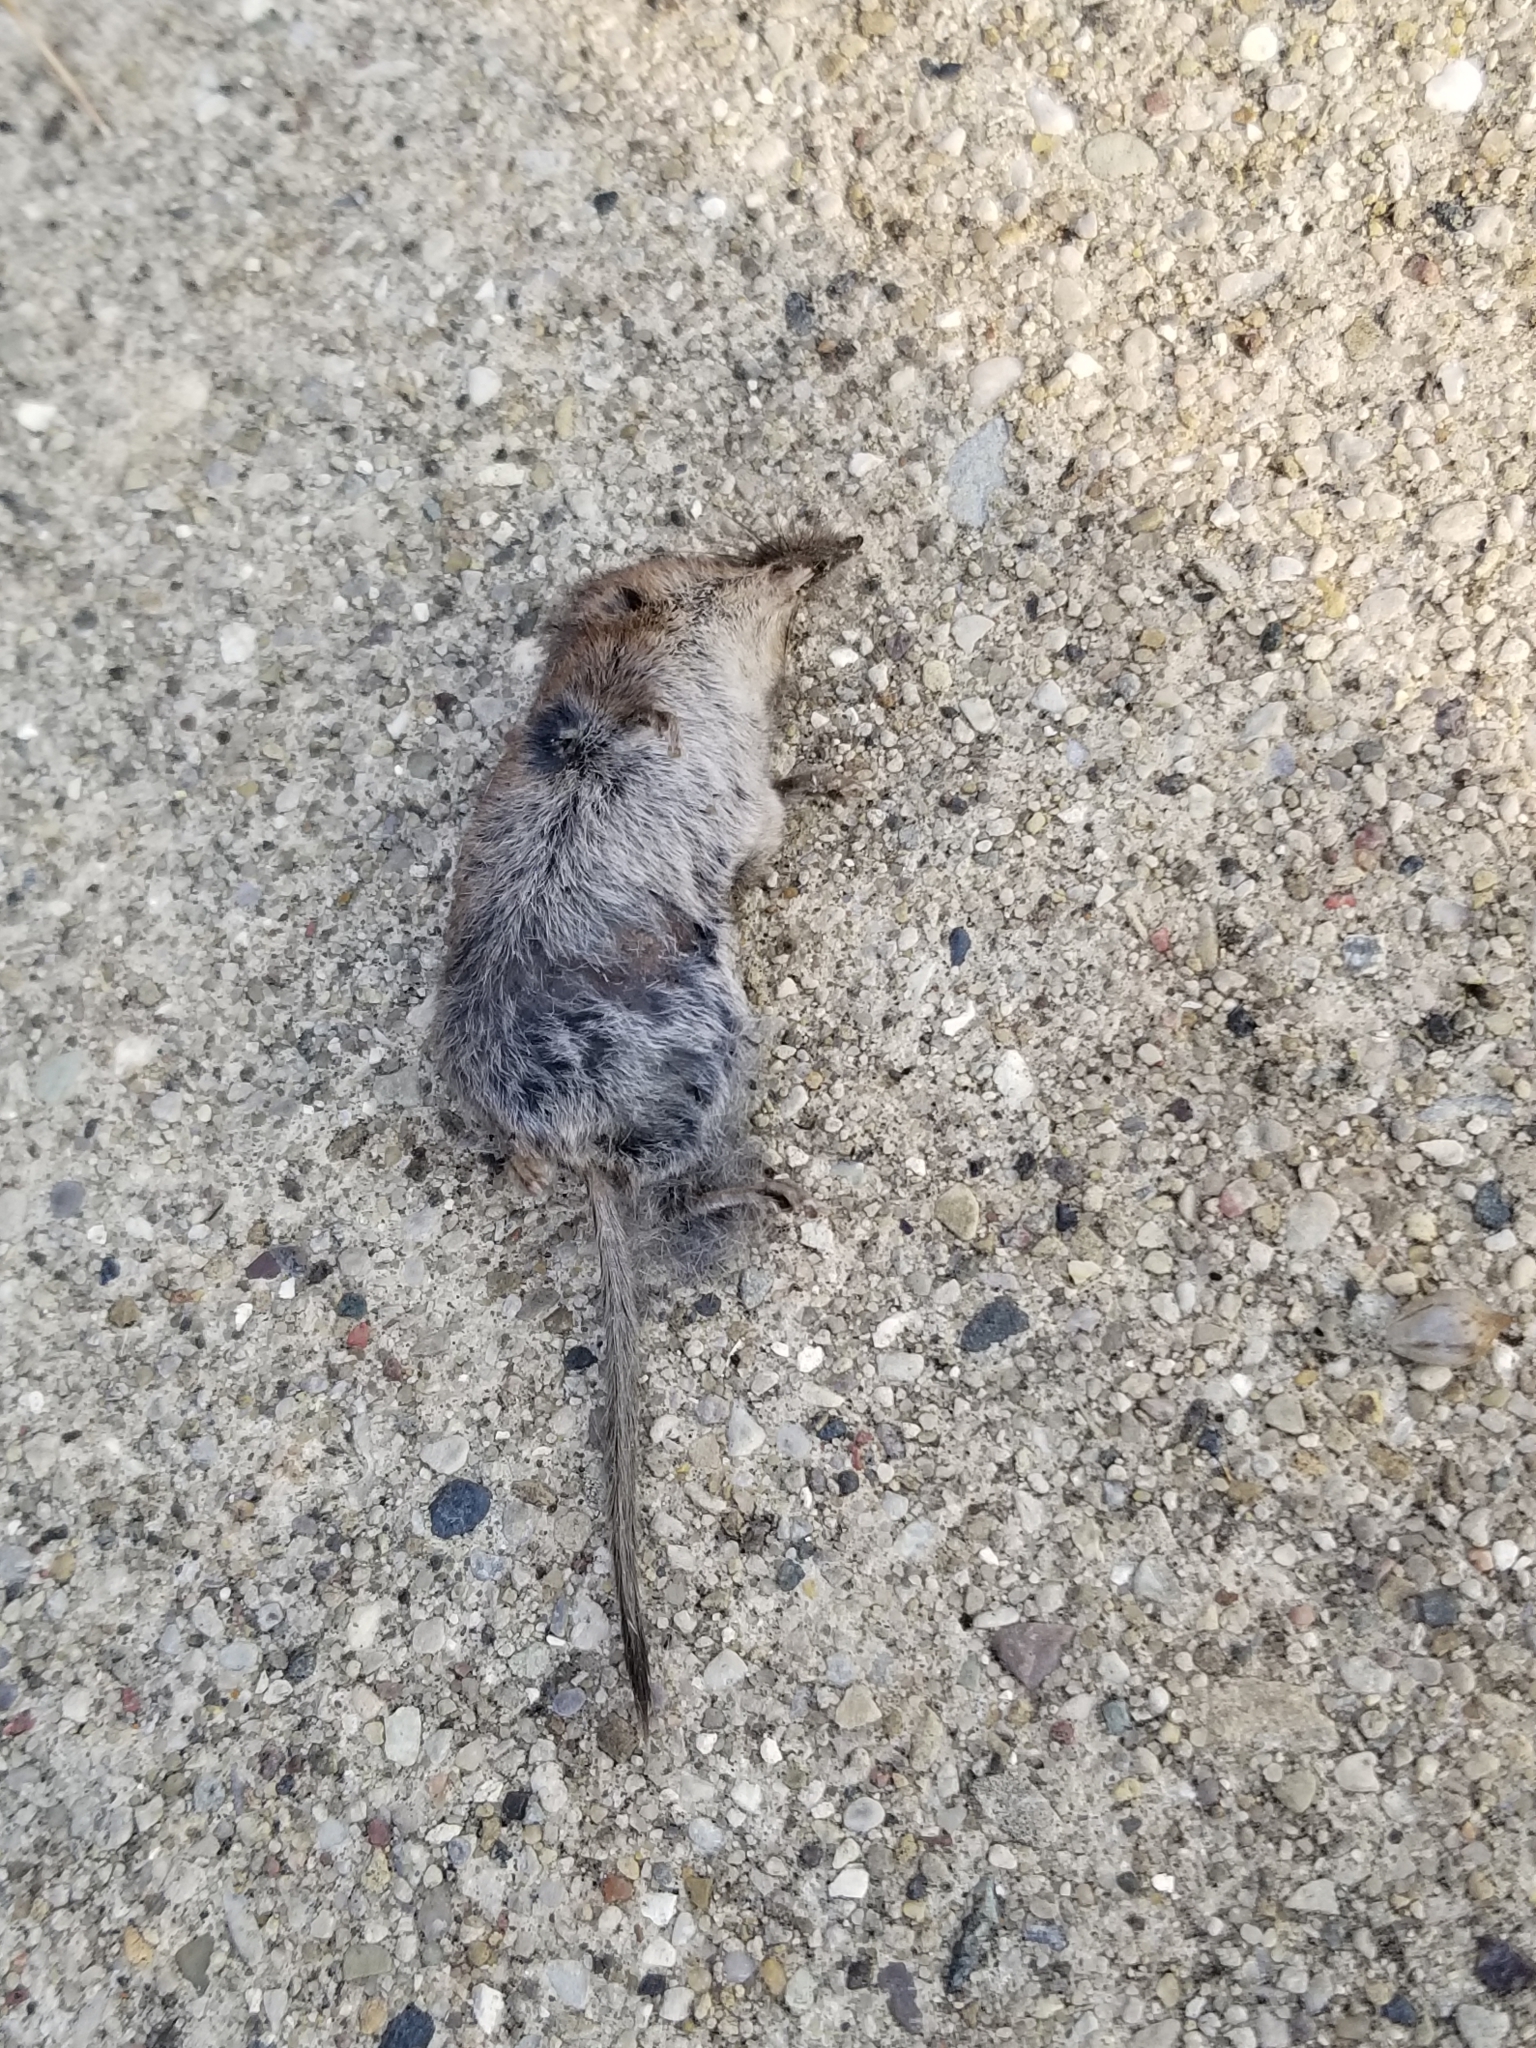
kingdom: Animalia
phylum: Chordata
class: Mammalia
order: Soricomorpha
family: Soricidae
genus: Sorex
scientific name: Sorex cinereus
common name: Cinereus shrew
